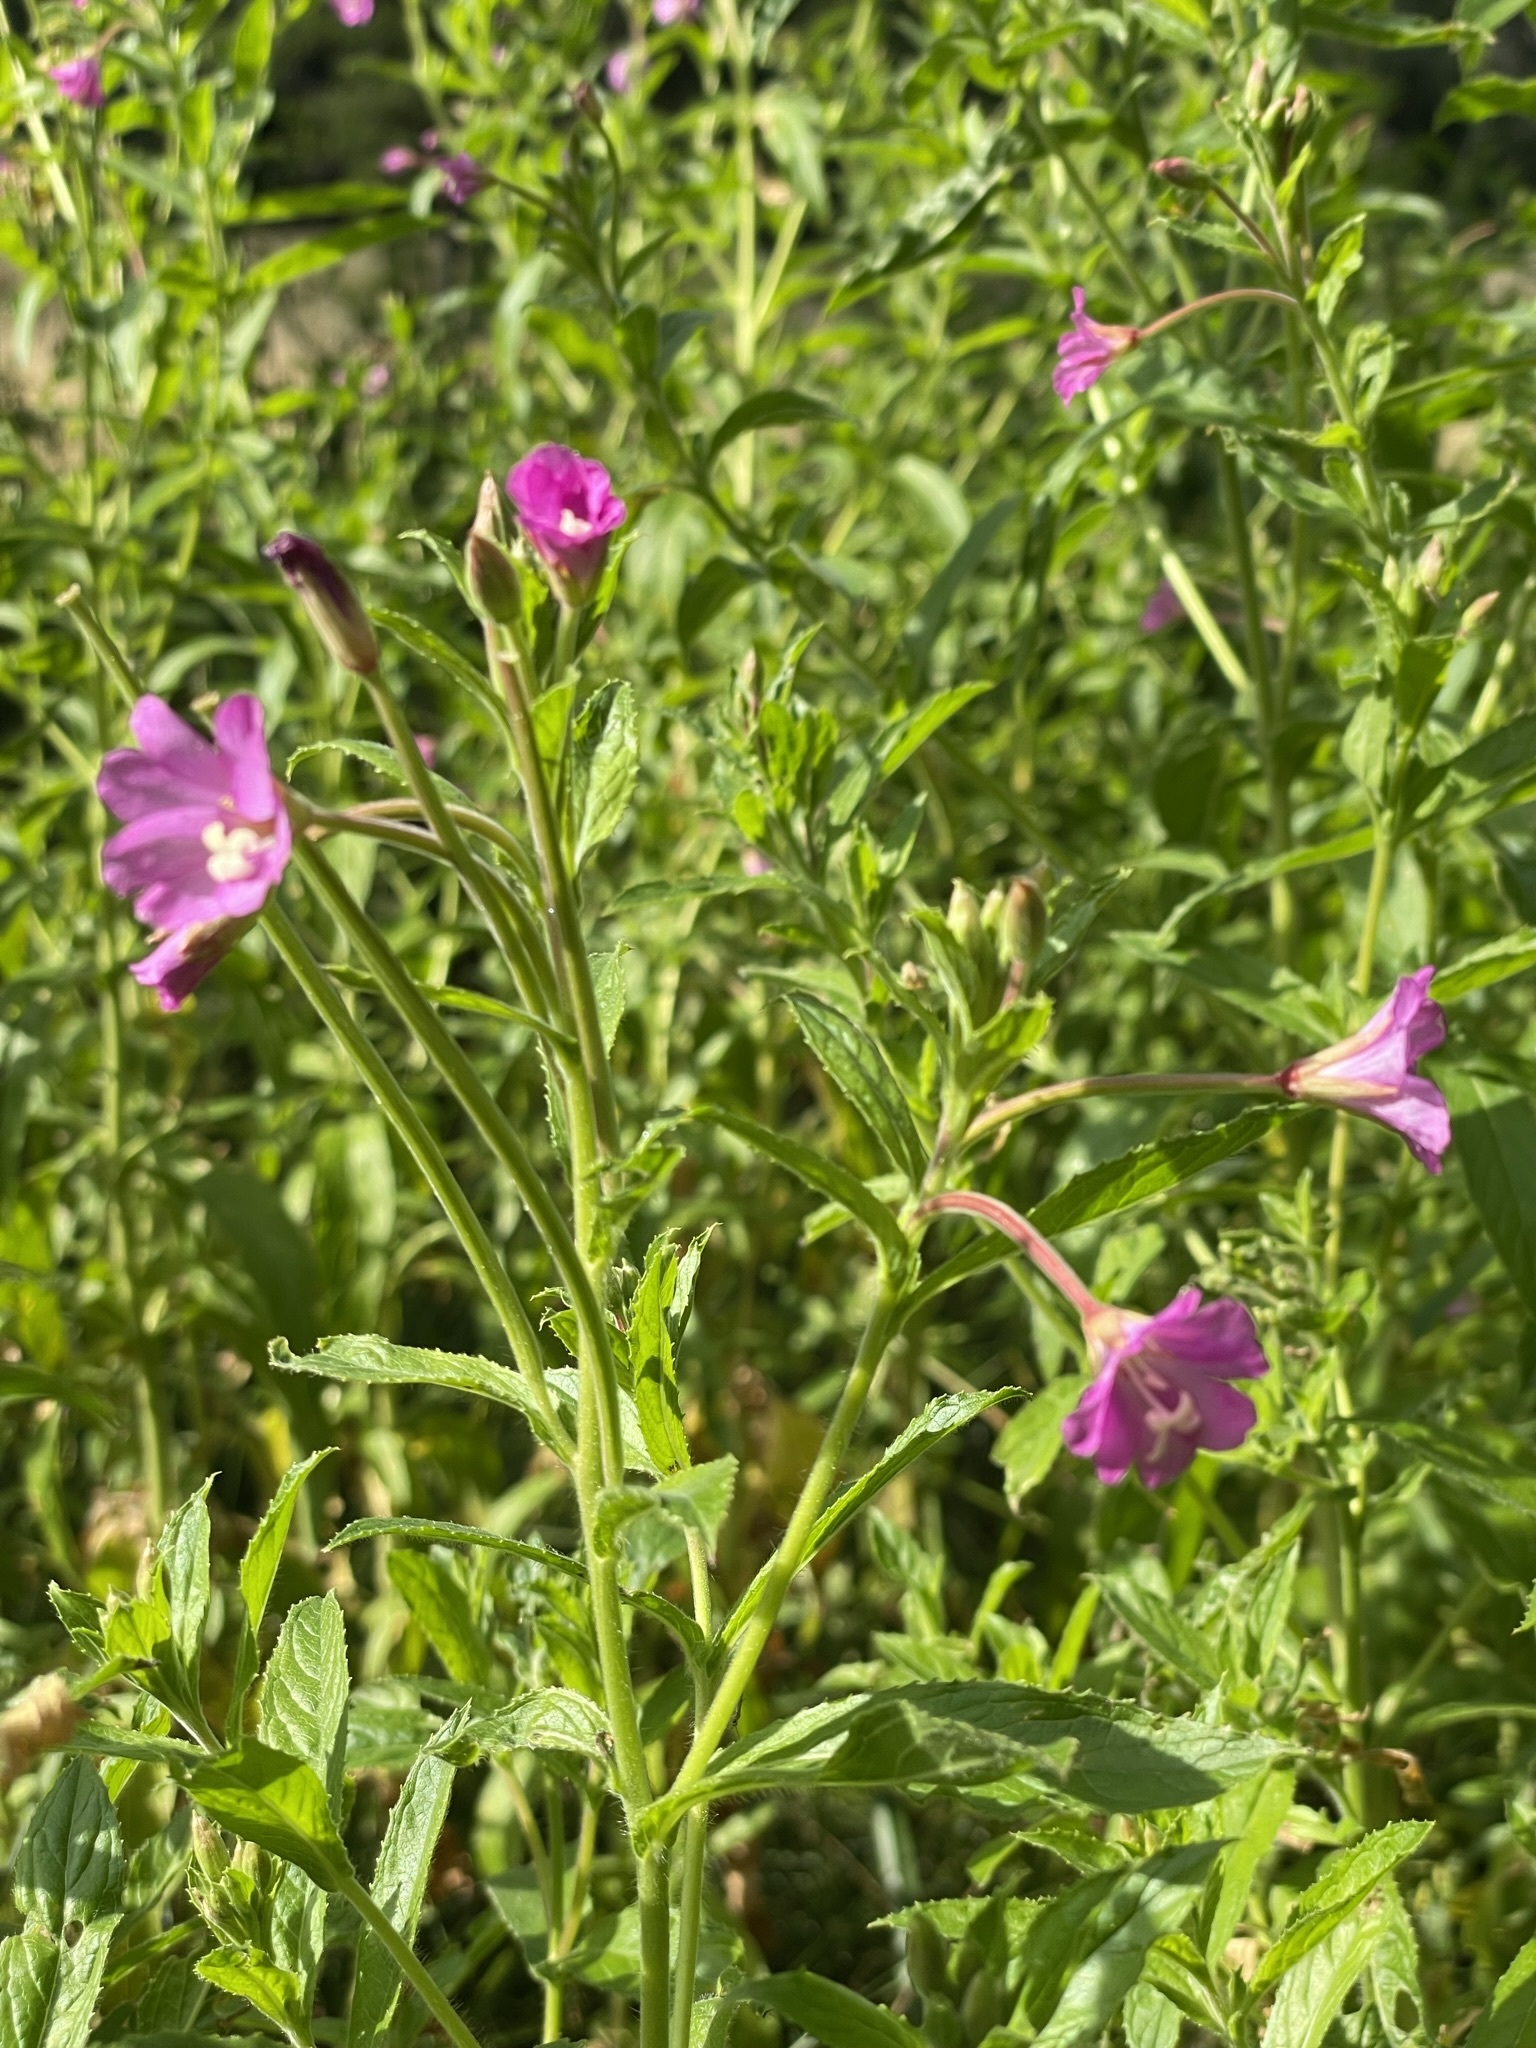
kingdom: Plantae
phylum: Tracheophyta
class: Magnoliopsida
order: Myrtales
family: Onagraceae
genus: Epilobium
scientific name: Epilobium hirsutum
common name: Great willowherb
